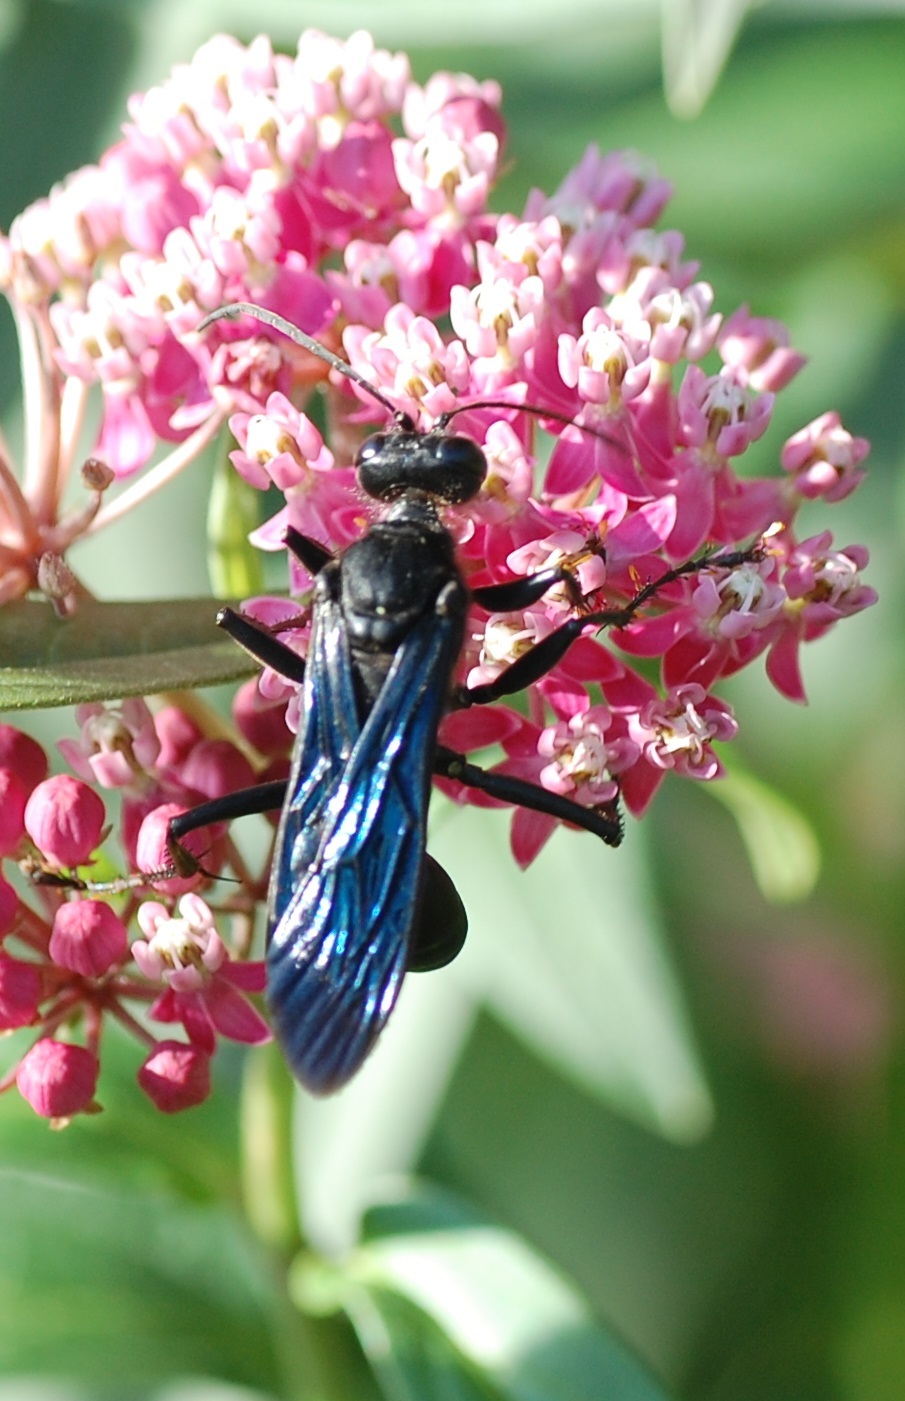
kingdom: Animalia
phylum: Arthropoda
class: Insecta
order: Hymenoptera
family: Sphecidae
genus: Sphex
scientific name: Sphex pensylvanicus
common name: Great black digger wasp
